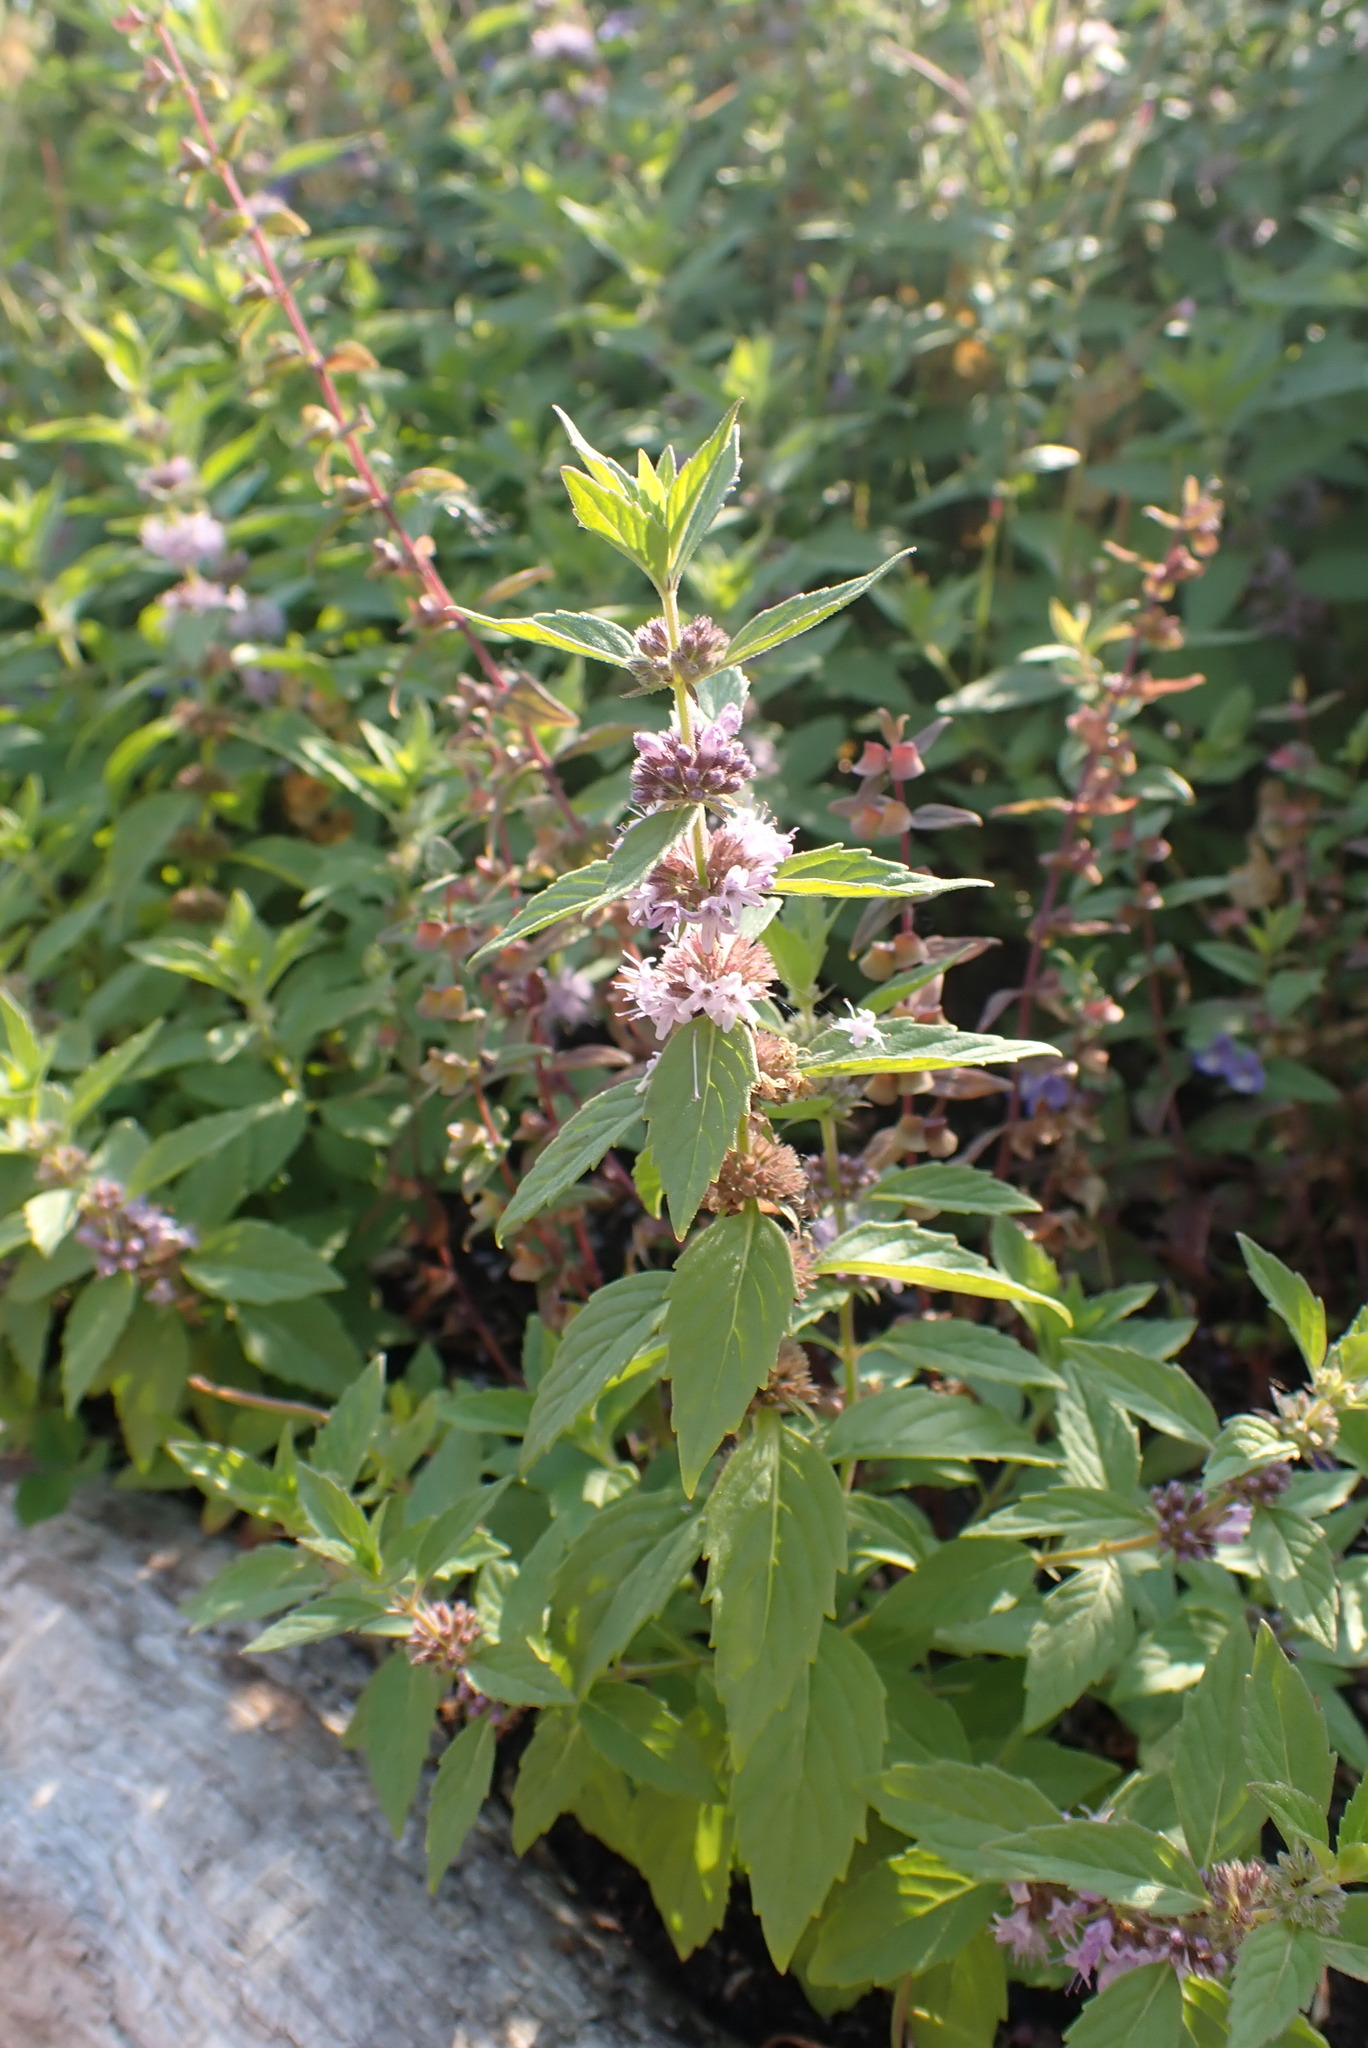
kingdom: Plantae
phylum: Tracheophyta
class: Magnoliopsida
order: Lamiales
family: Lamiaceae
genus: Mentha
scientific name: Mentha canadensis
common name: American corn mint
